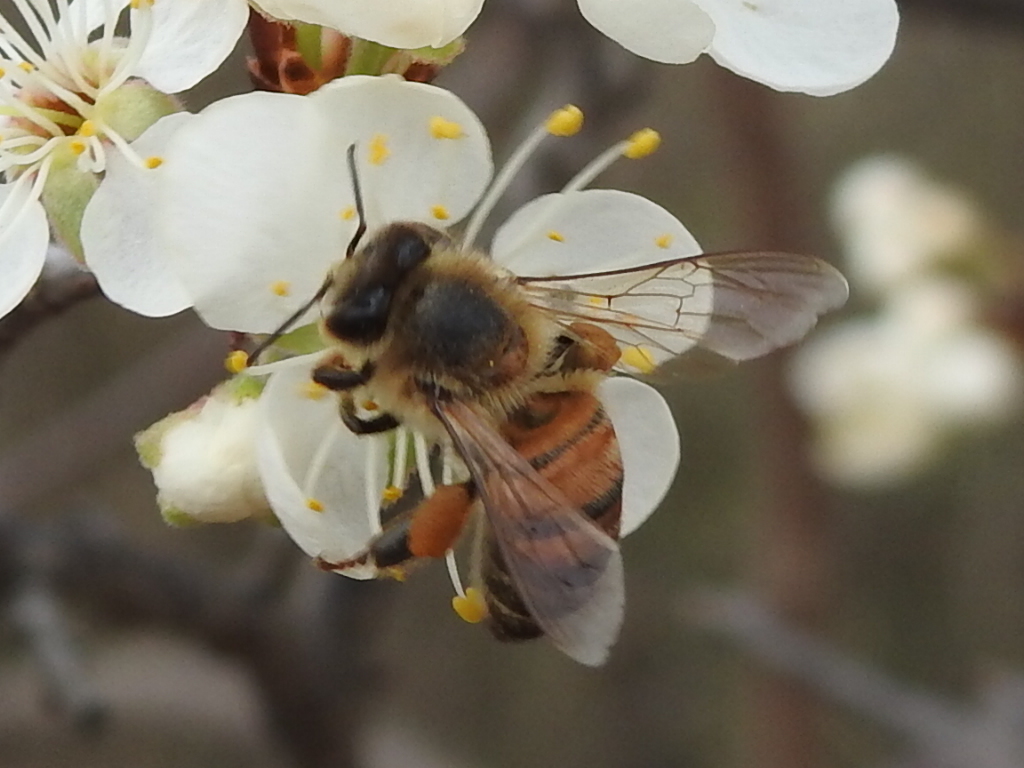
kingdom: Animalia
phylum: Arthropoda
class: Insecta
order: Hymenoptera
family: Apidae
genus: Apis
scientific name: Apis mellifera
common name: Honey bee
